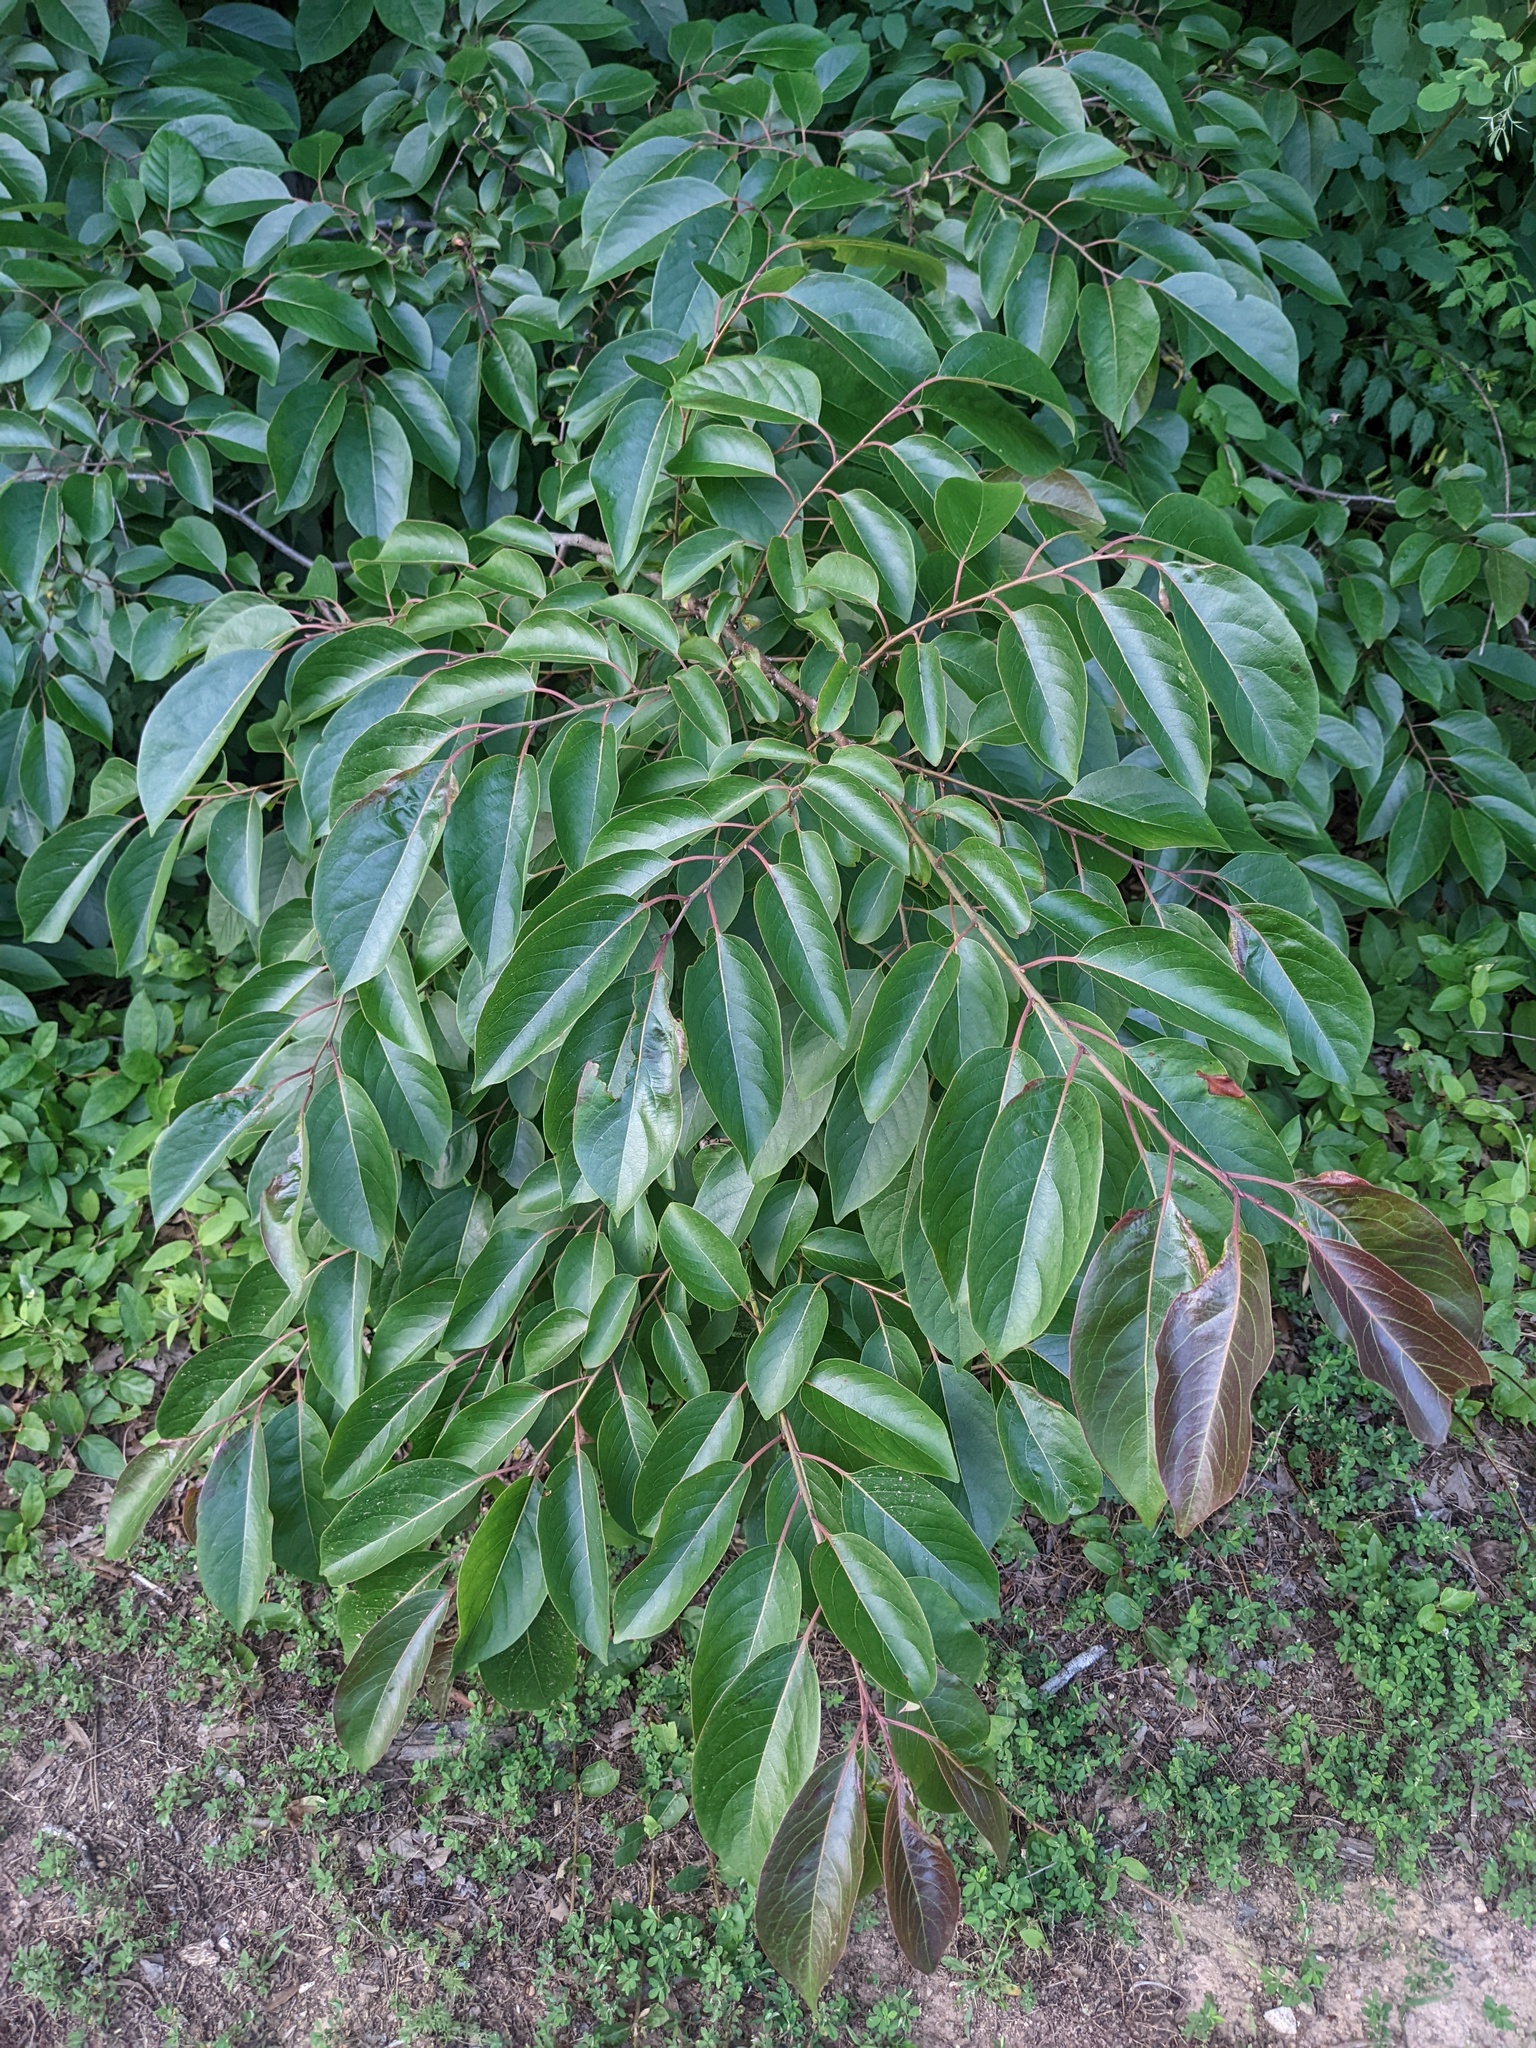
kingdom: Plantae
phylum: Tracheophyta
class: Magnoliopsida
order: Ericales
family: Ebenaceae
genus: Diospyros
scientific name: Diospyros virginiana
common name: Persimmon
